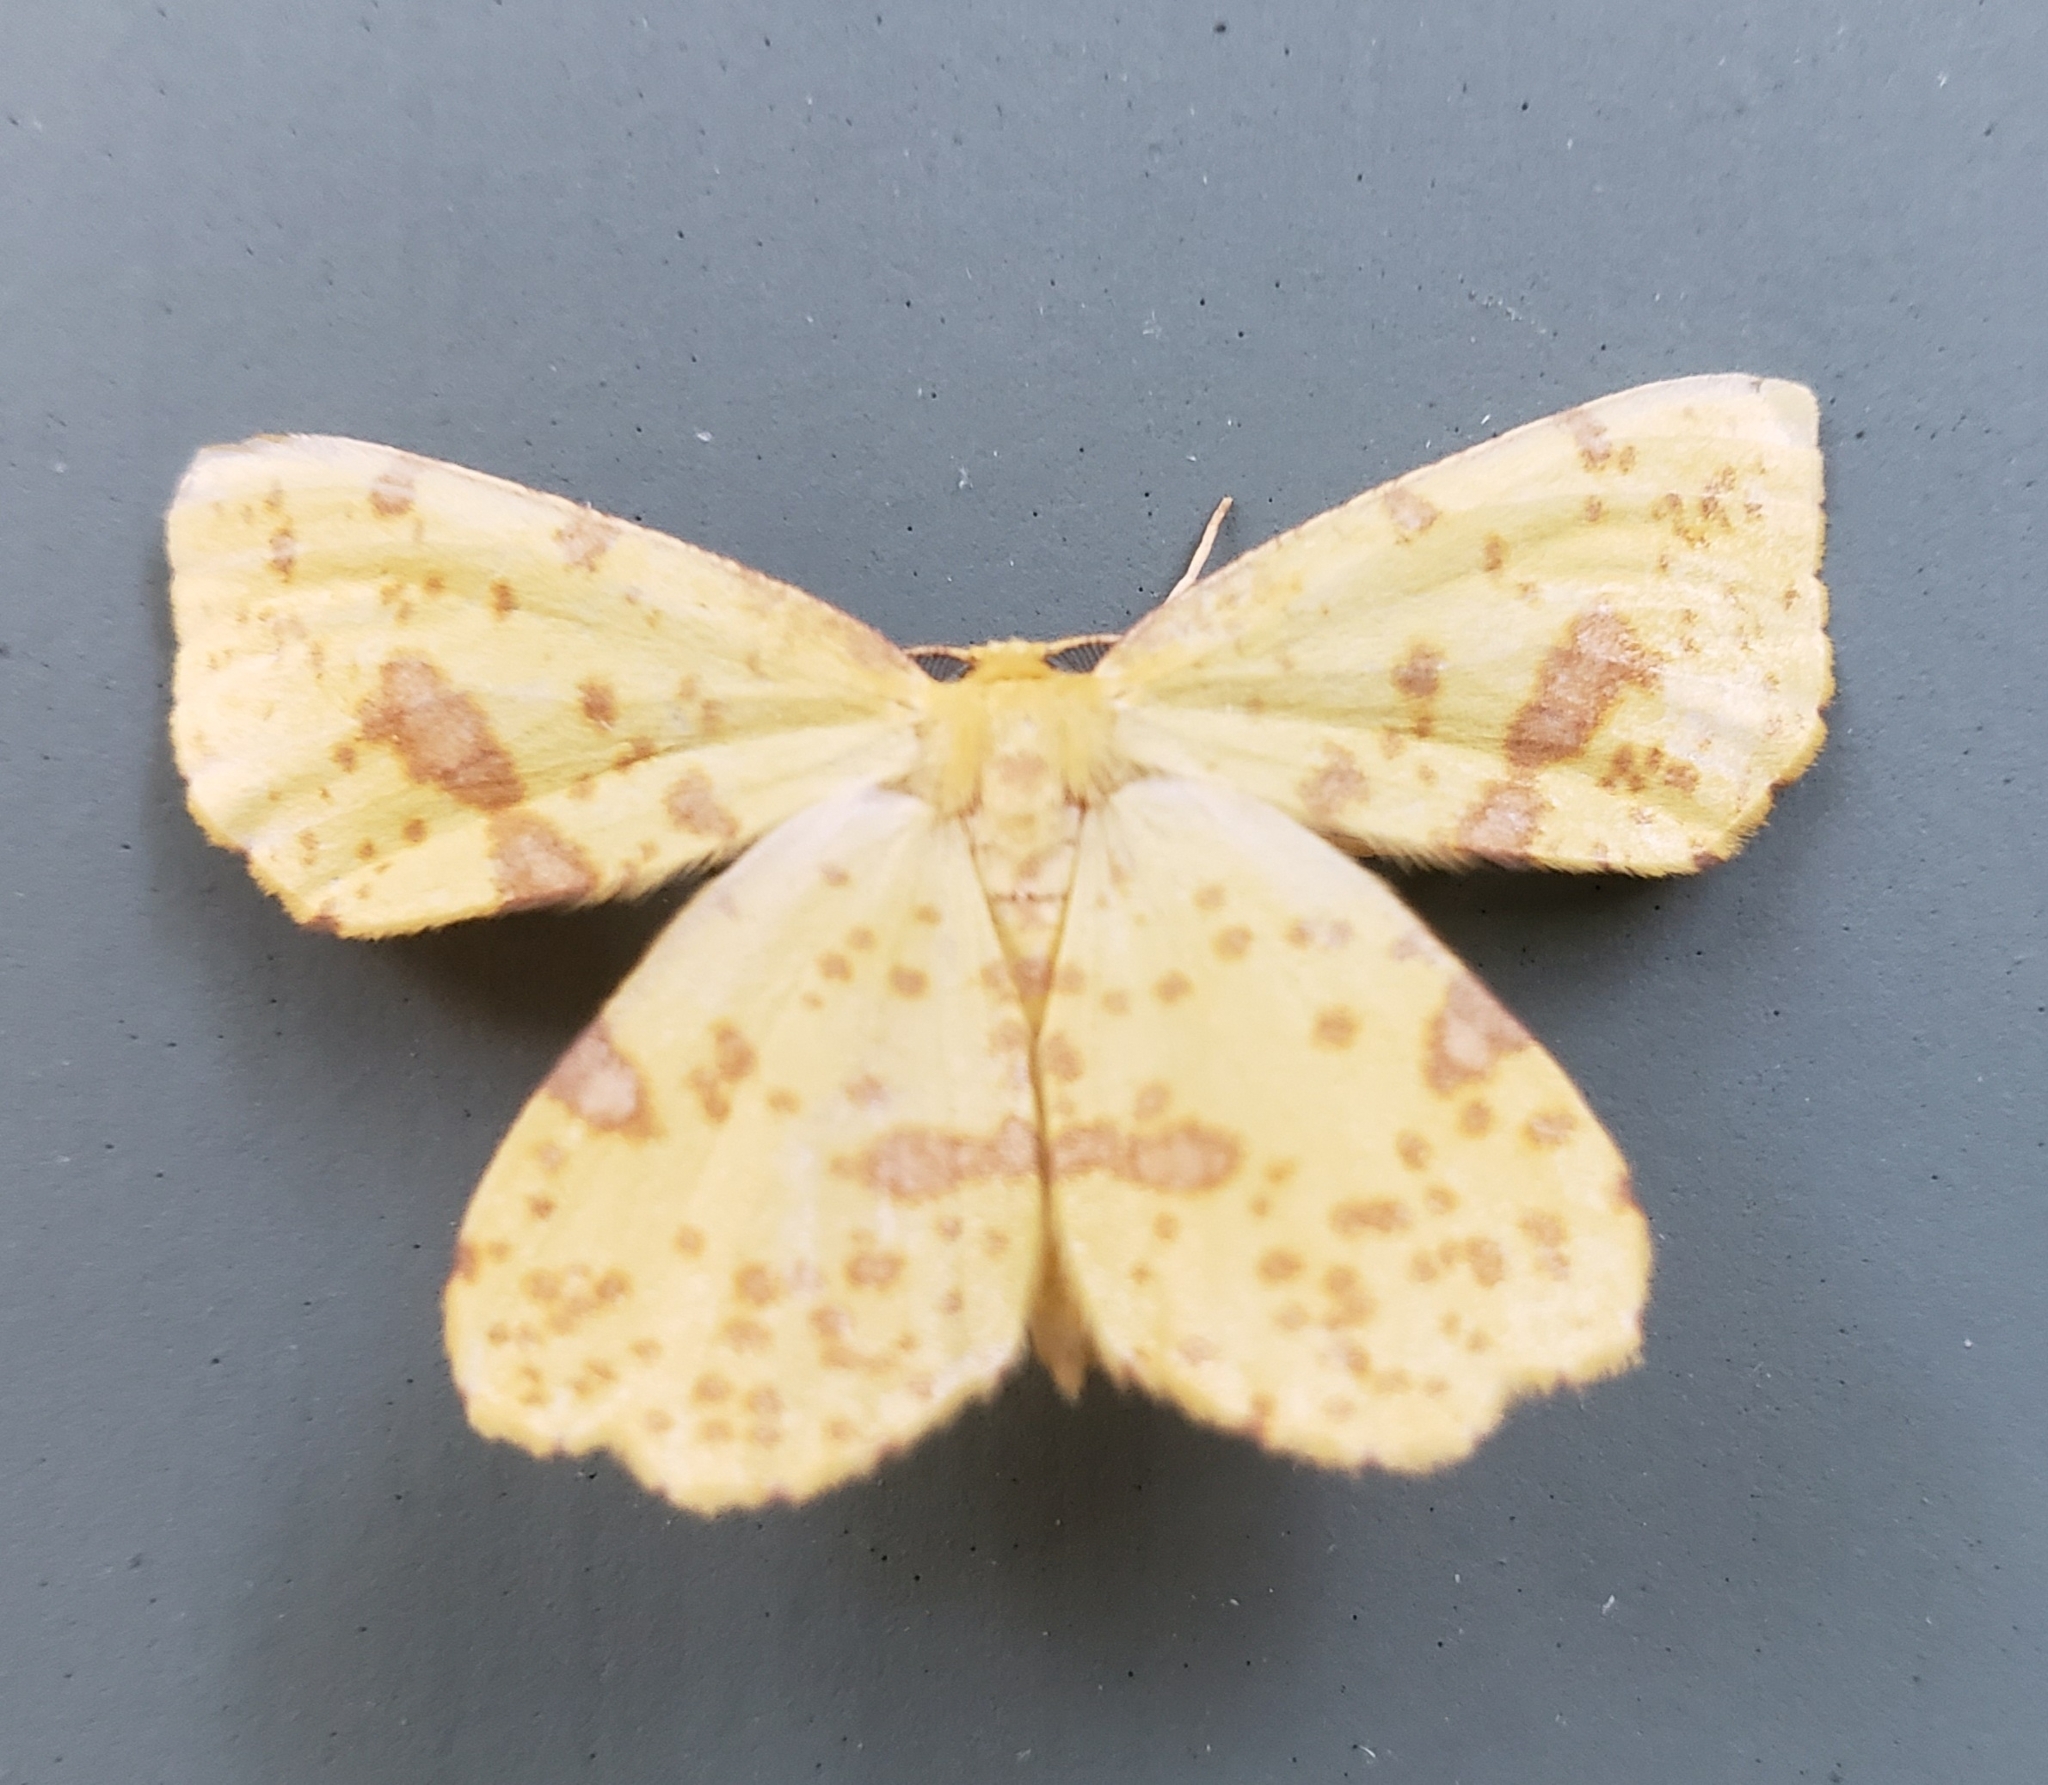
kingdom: Animalia
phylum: Arthropoda
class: Insecta
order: Lepidoptera
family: Geometridae
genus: Xanthotype
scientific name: Xanthotype
